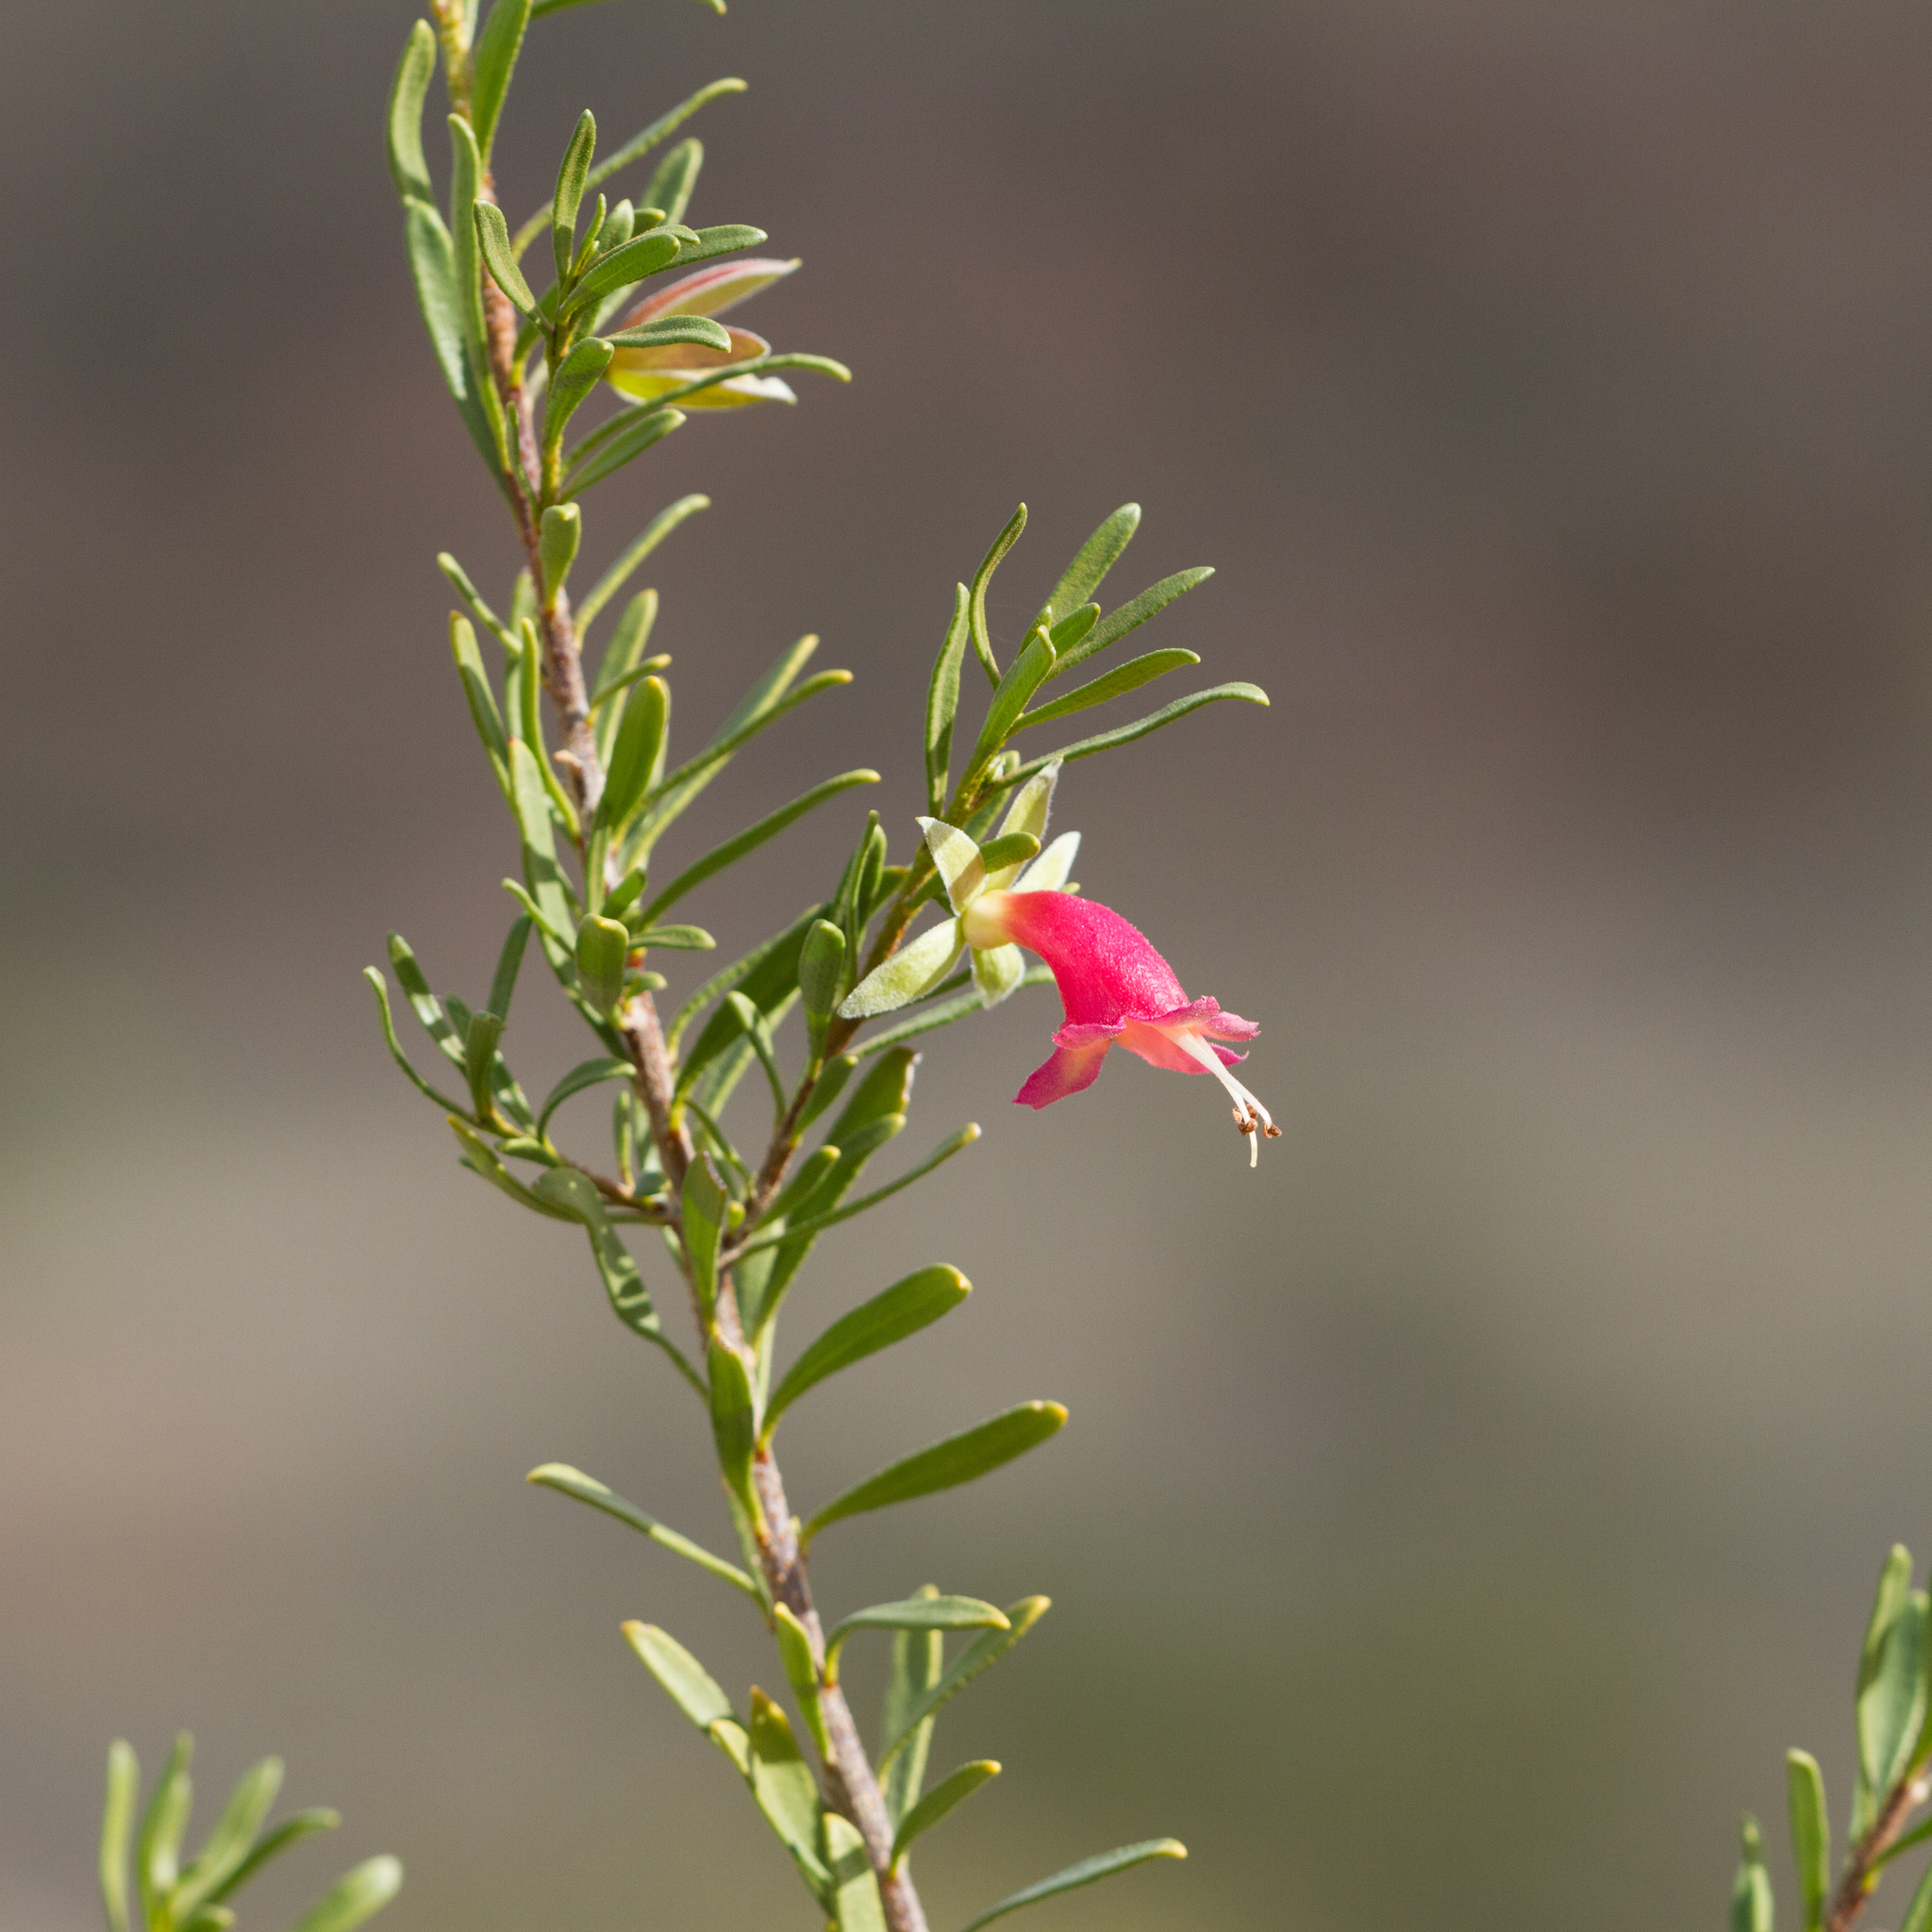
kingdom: Plantae
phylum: Tracheophyta
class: Magnoliopsida
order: Lamiales
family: Scrophulariaceae
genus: Eremophila
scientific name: Eremophila latrobei
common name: Crimson turkeybush
